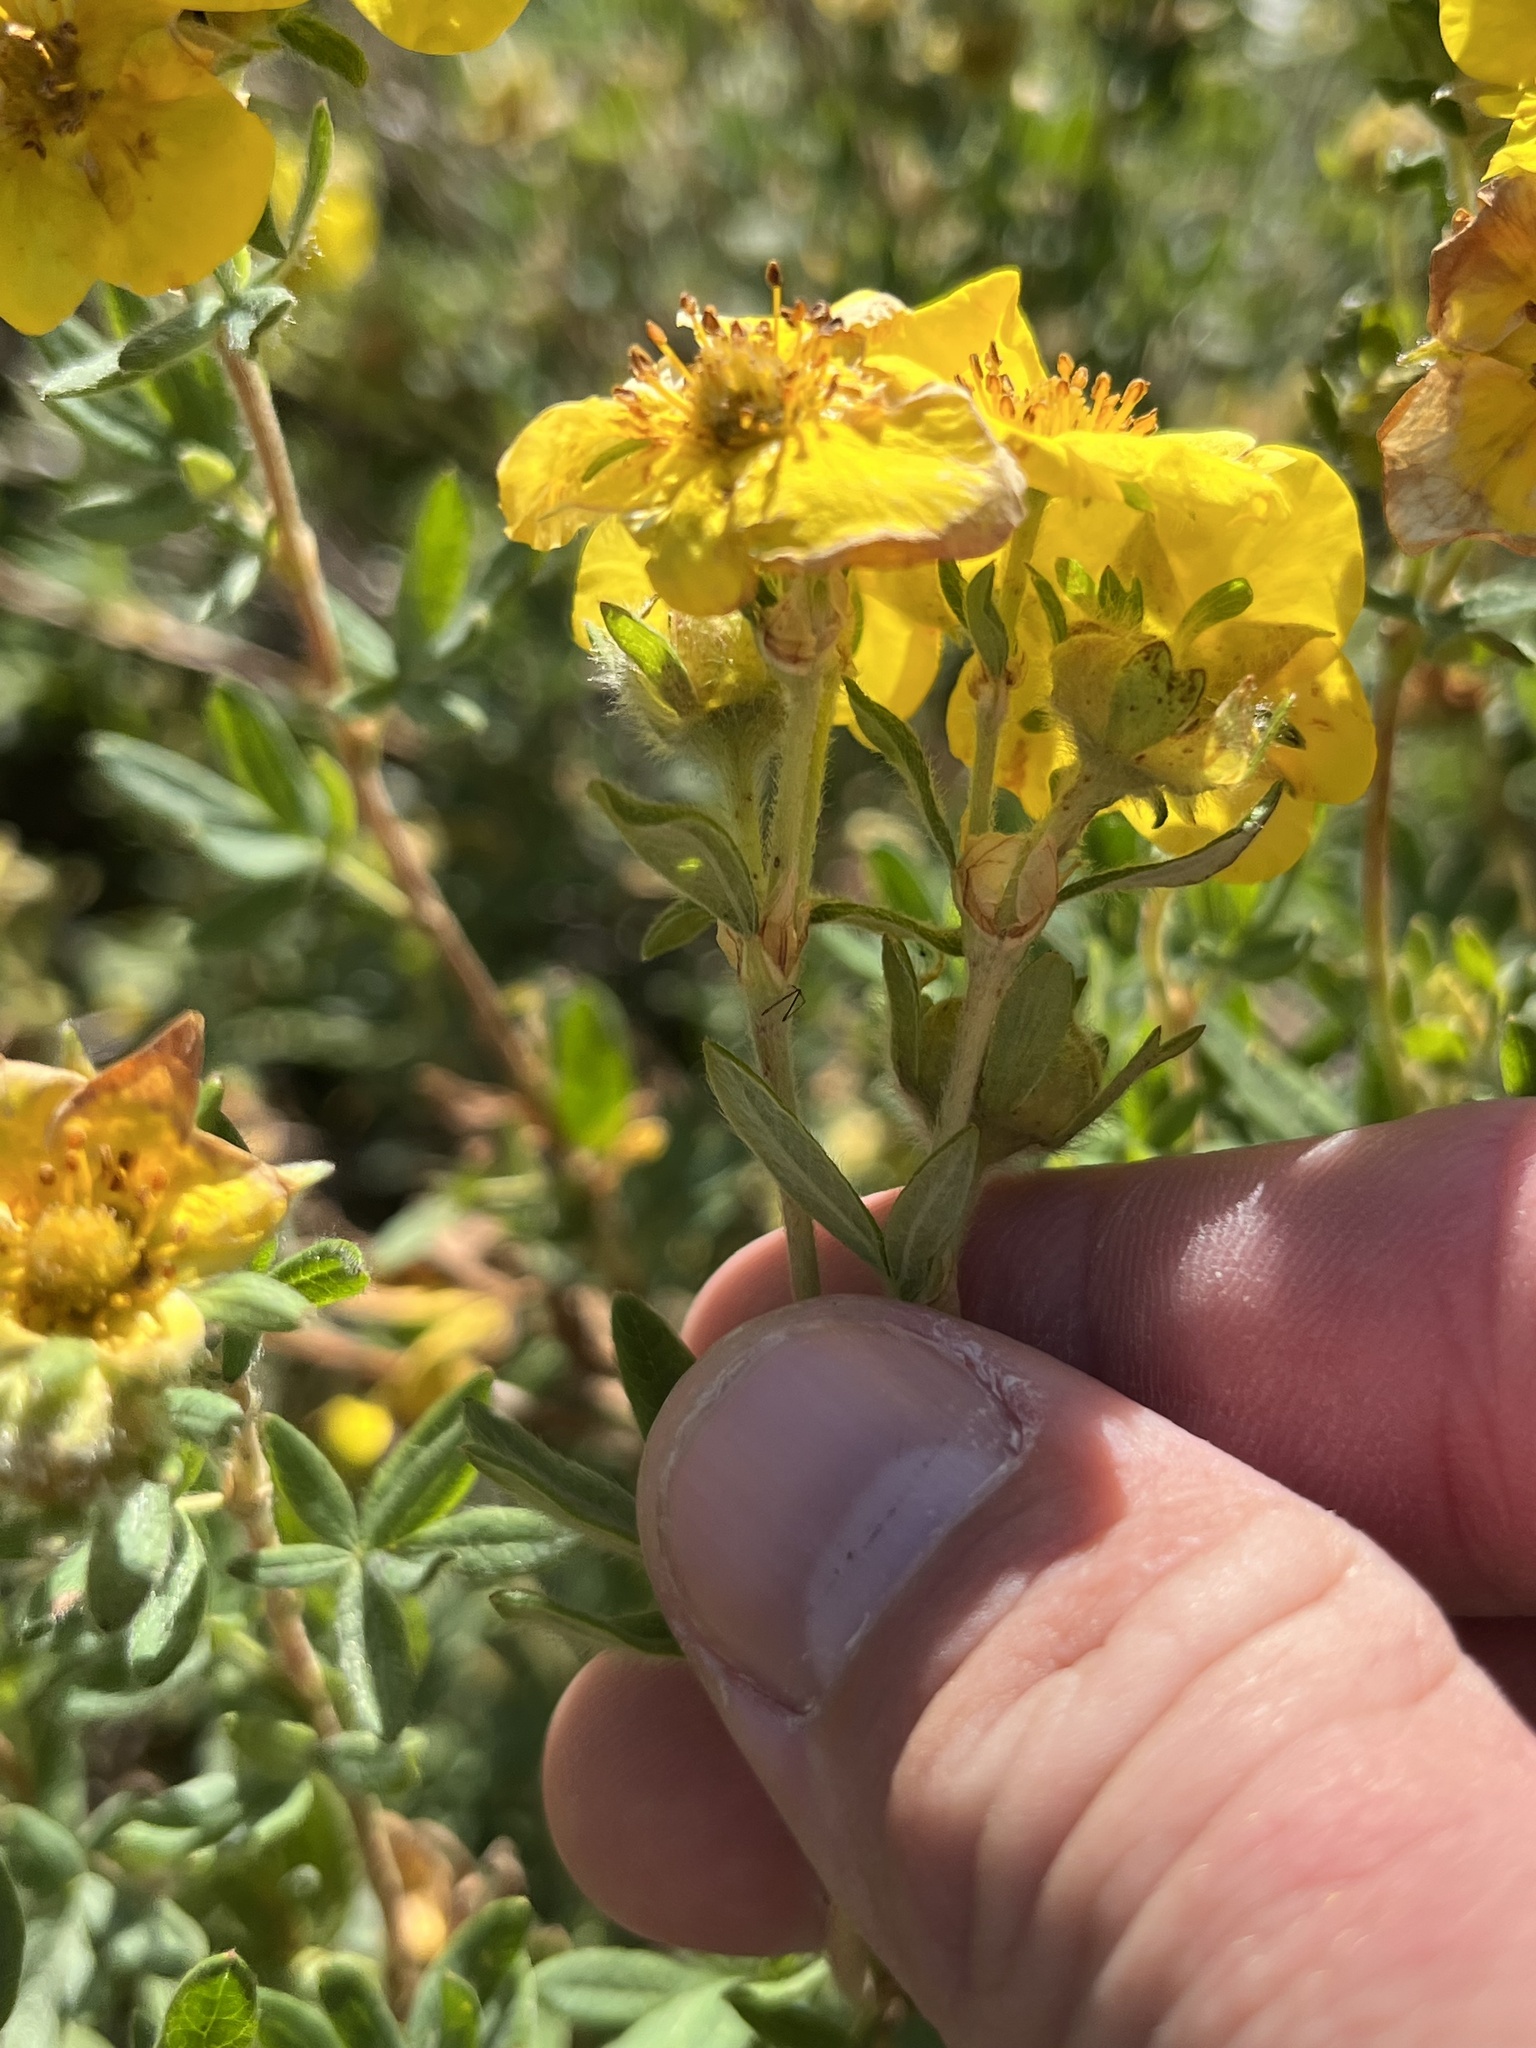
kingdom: Plantae
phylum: Tracheophyta
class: Magnoliopsida
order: Rosales
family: Rosaceae
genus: Dasiphora
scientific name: Dasiphora fruticosa
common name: Shrubby cinquefoil
